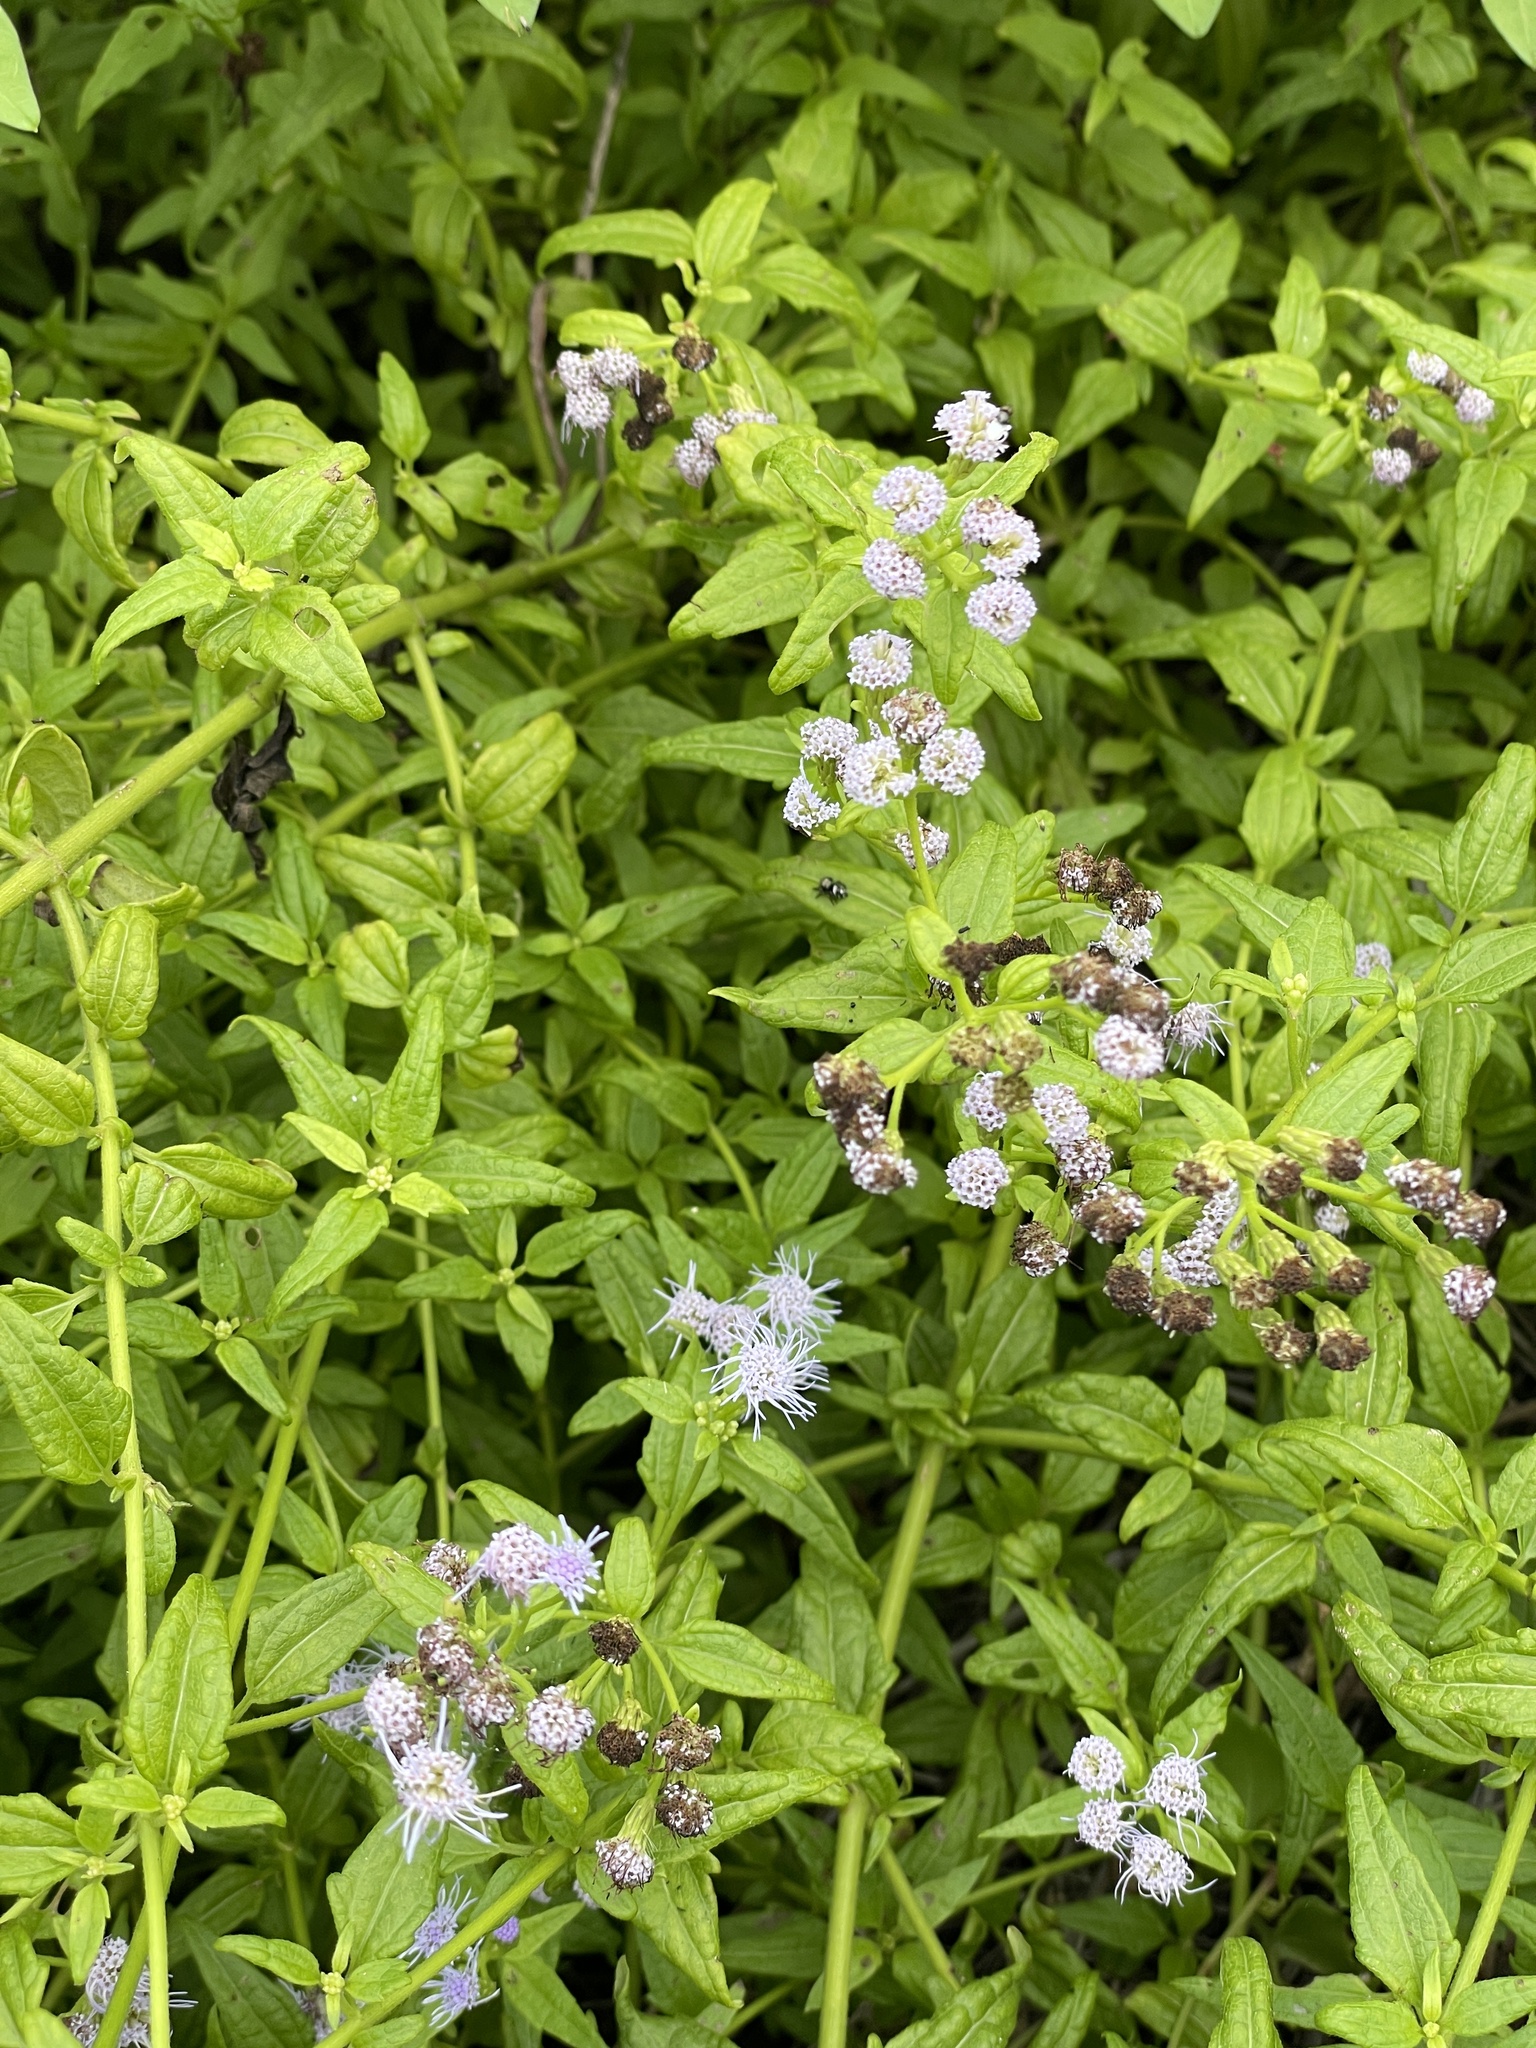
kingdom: Plantae
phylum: Tracheophyta
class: Magnoliopsida
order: Asterales
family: Asteraceae
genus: Chromolaena
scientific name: Chromolaena odorata
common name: Siamweed
